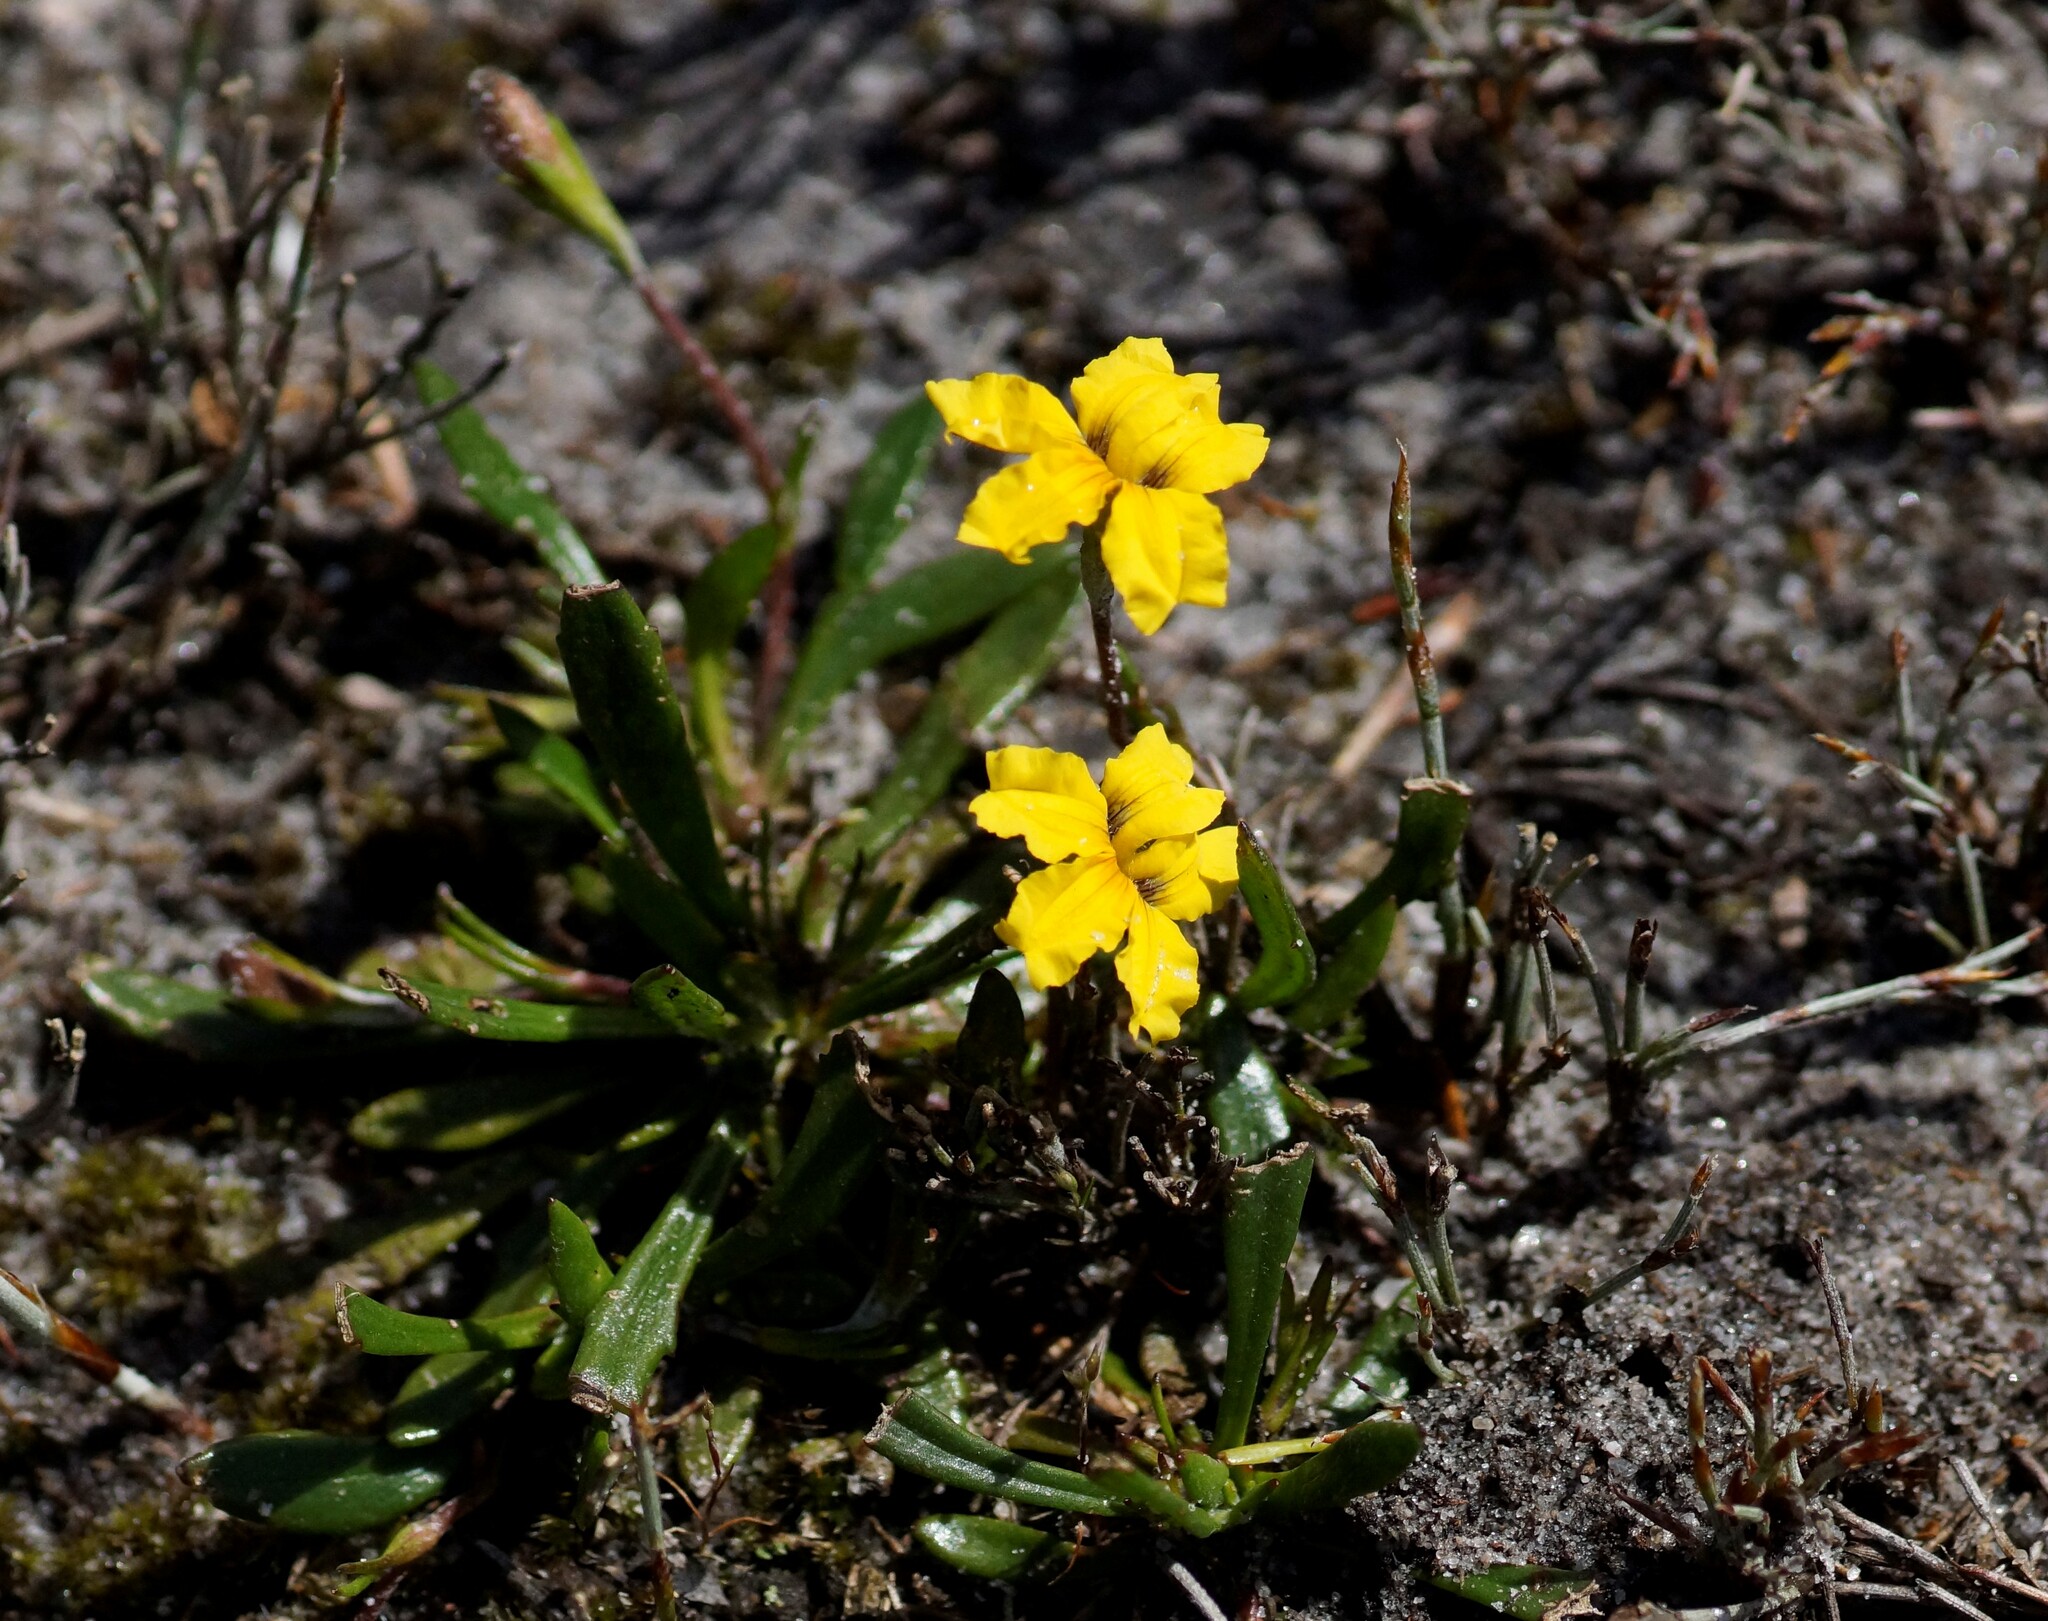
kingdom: Plantae
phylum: Tracheophyta
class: Magnoliopsida
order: Asterales
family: Goodeniaceae
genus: Goodenia
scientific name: Goodenia geniculata
